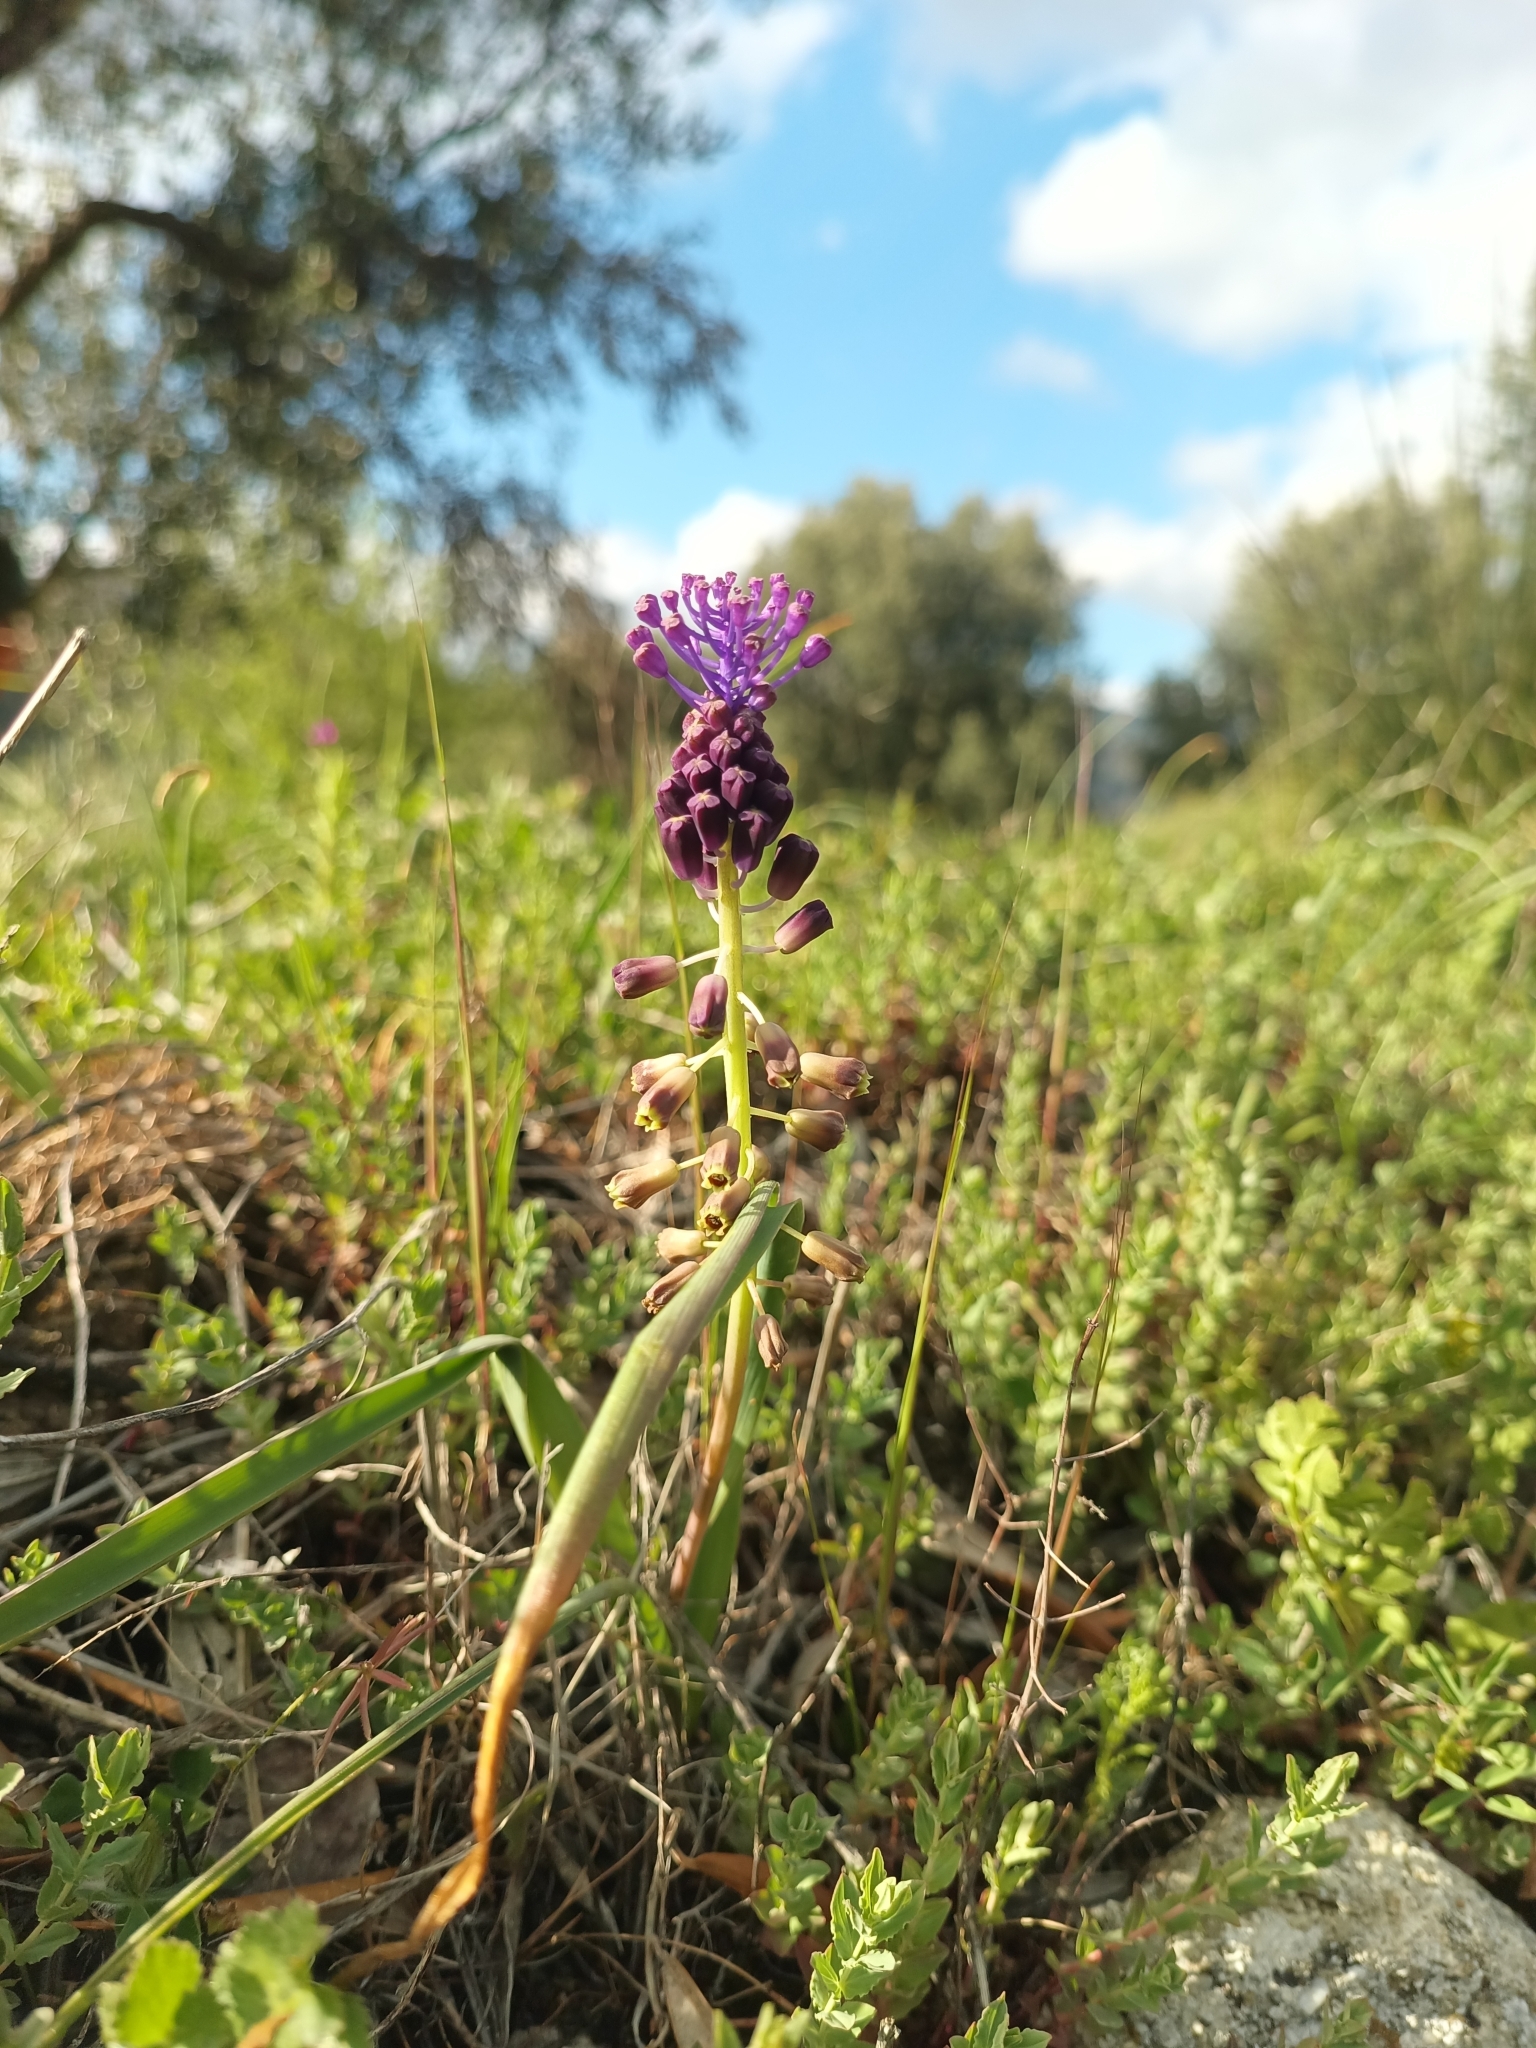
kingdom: Plantae
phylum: Tracheophyta
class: Liliopsida
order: Asparagales
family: Asparagaceae
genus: Muscari
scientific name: Muscari comosum
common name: Tassel hyacinth
